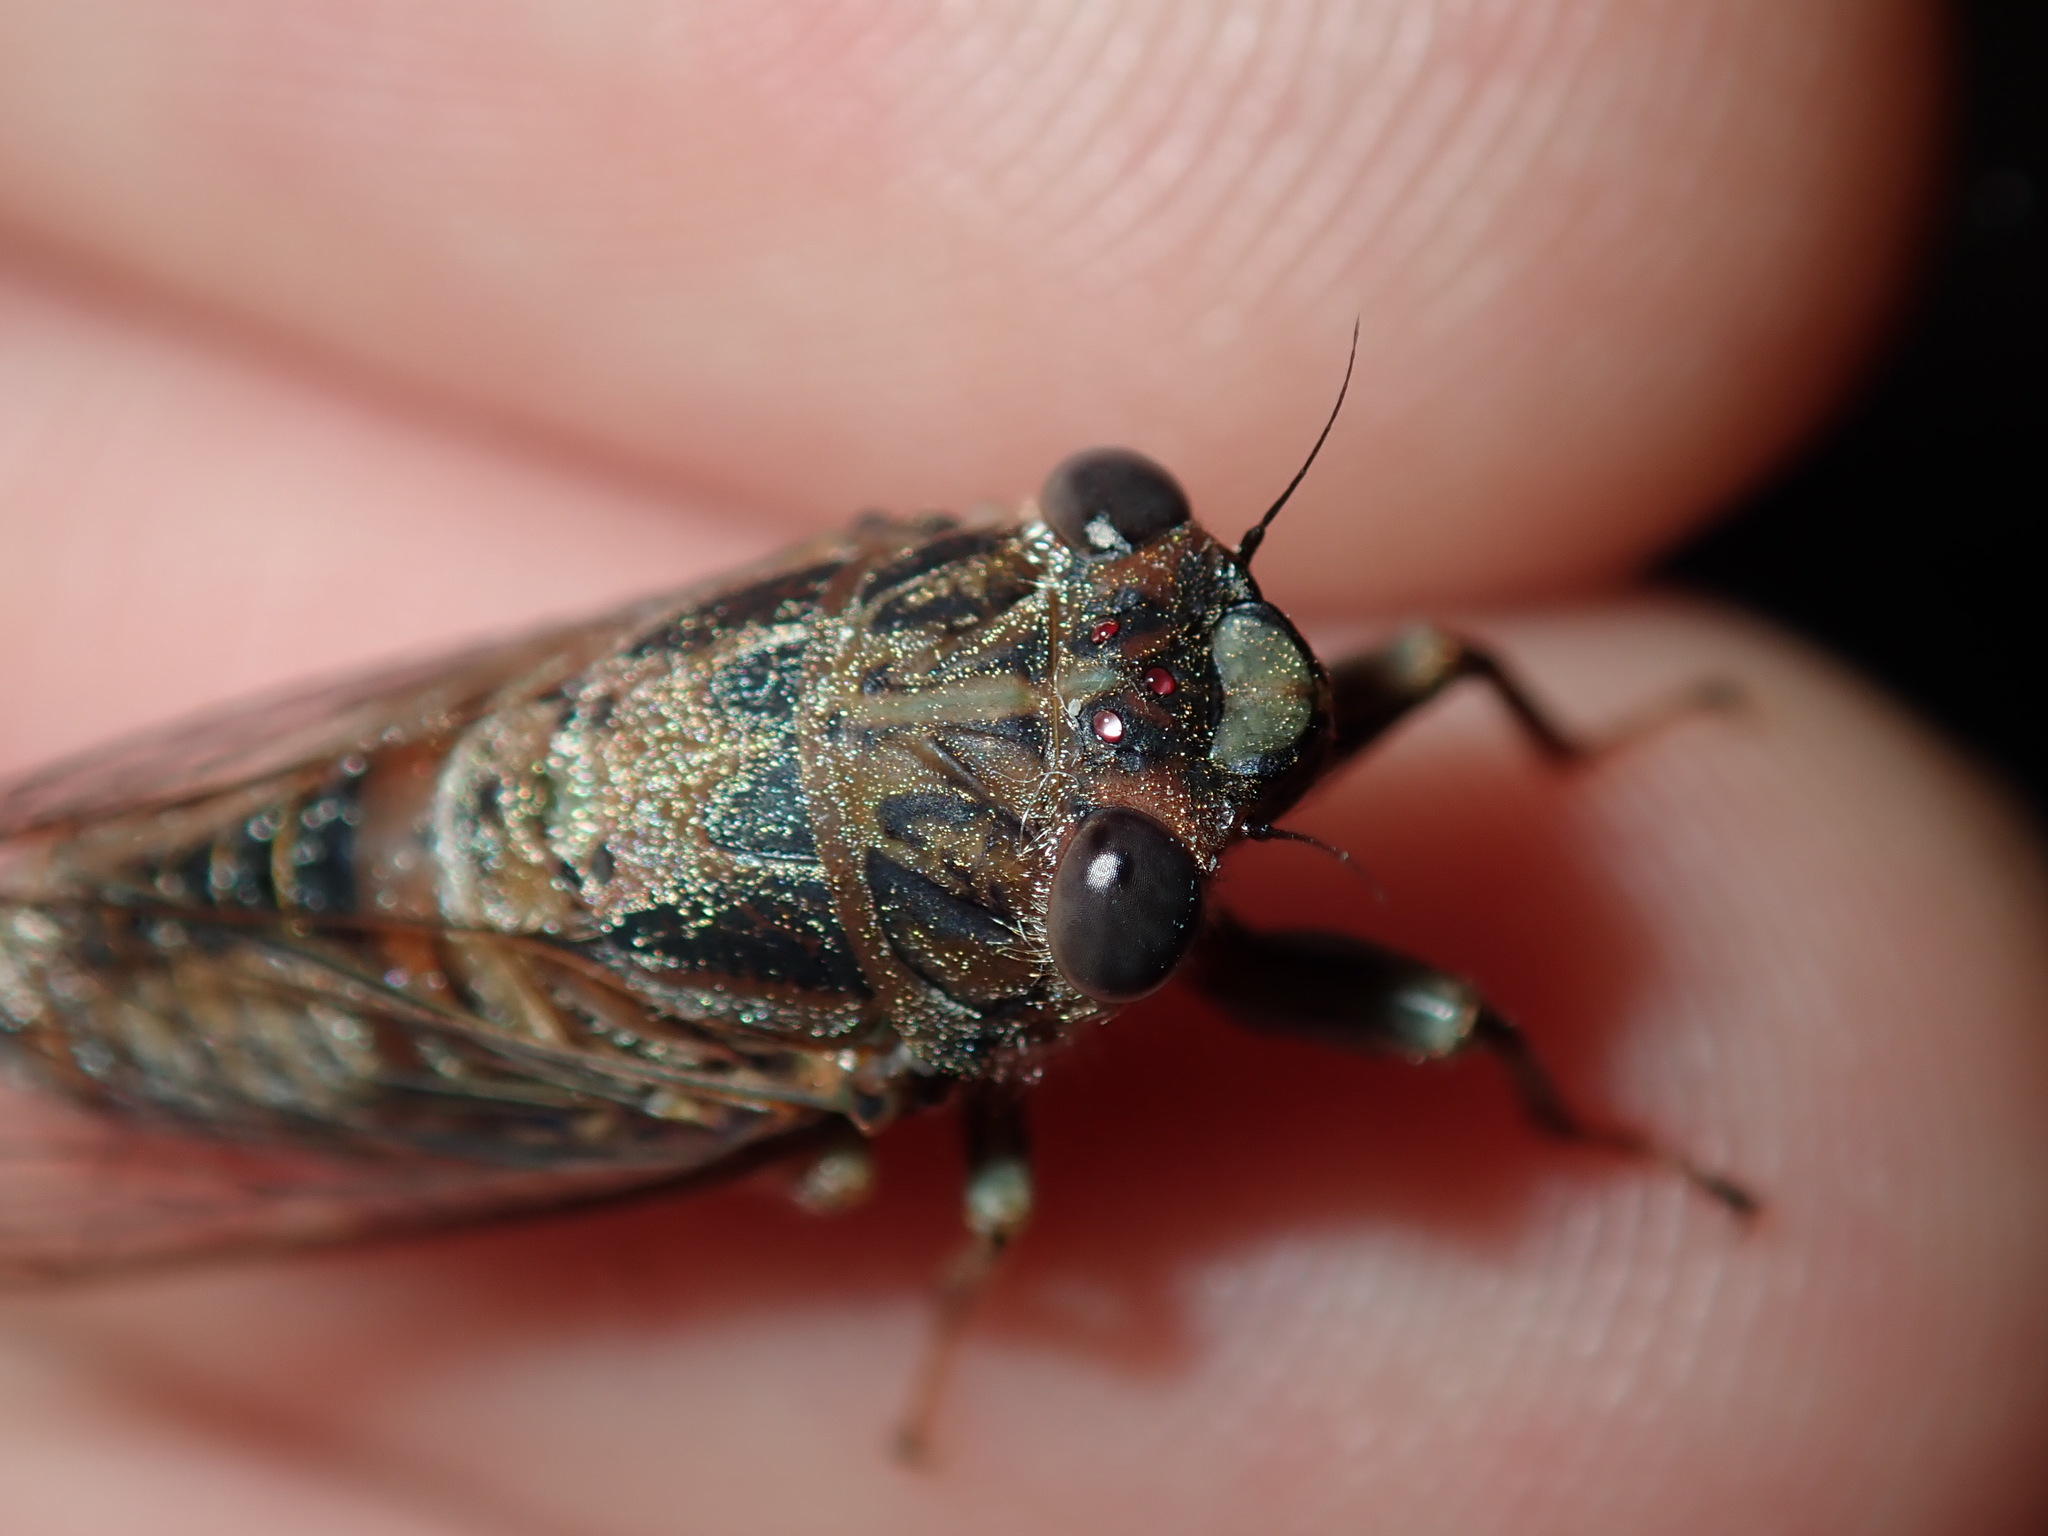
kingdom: Animalia
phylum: Arthropoda
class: Insecta
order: Hemiptera
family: Cicadidae
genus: Yoyetta
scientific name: Yoyetta celis
